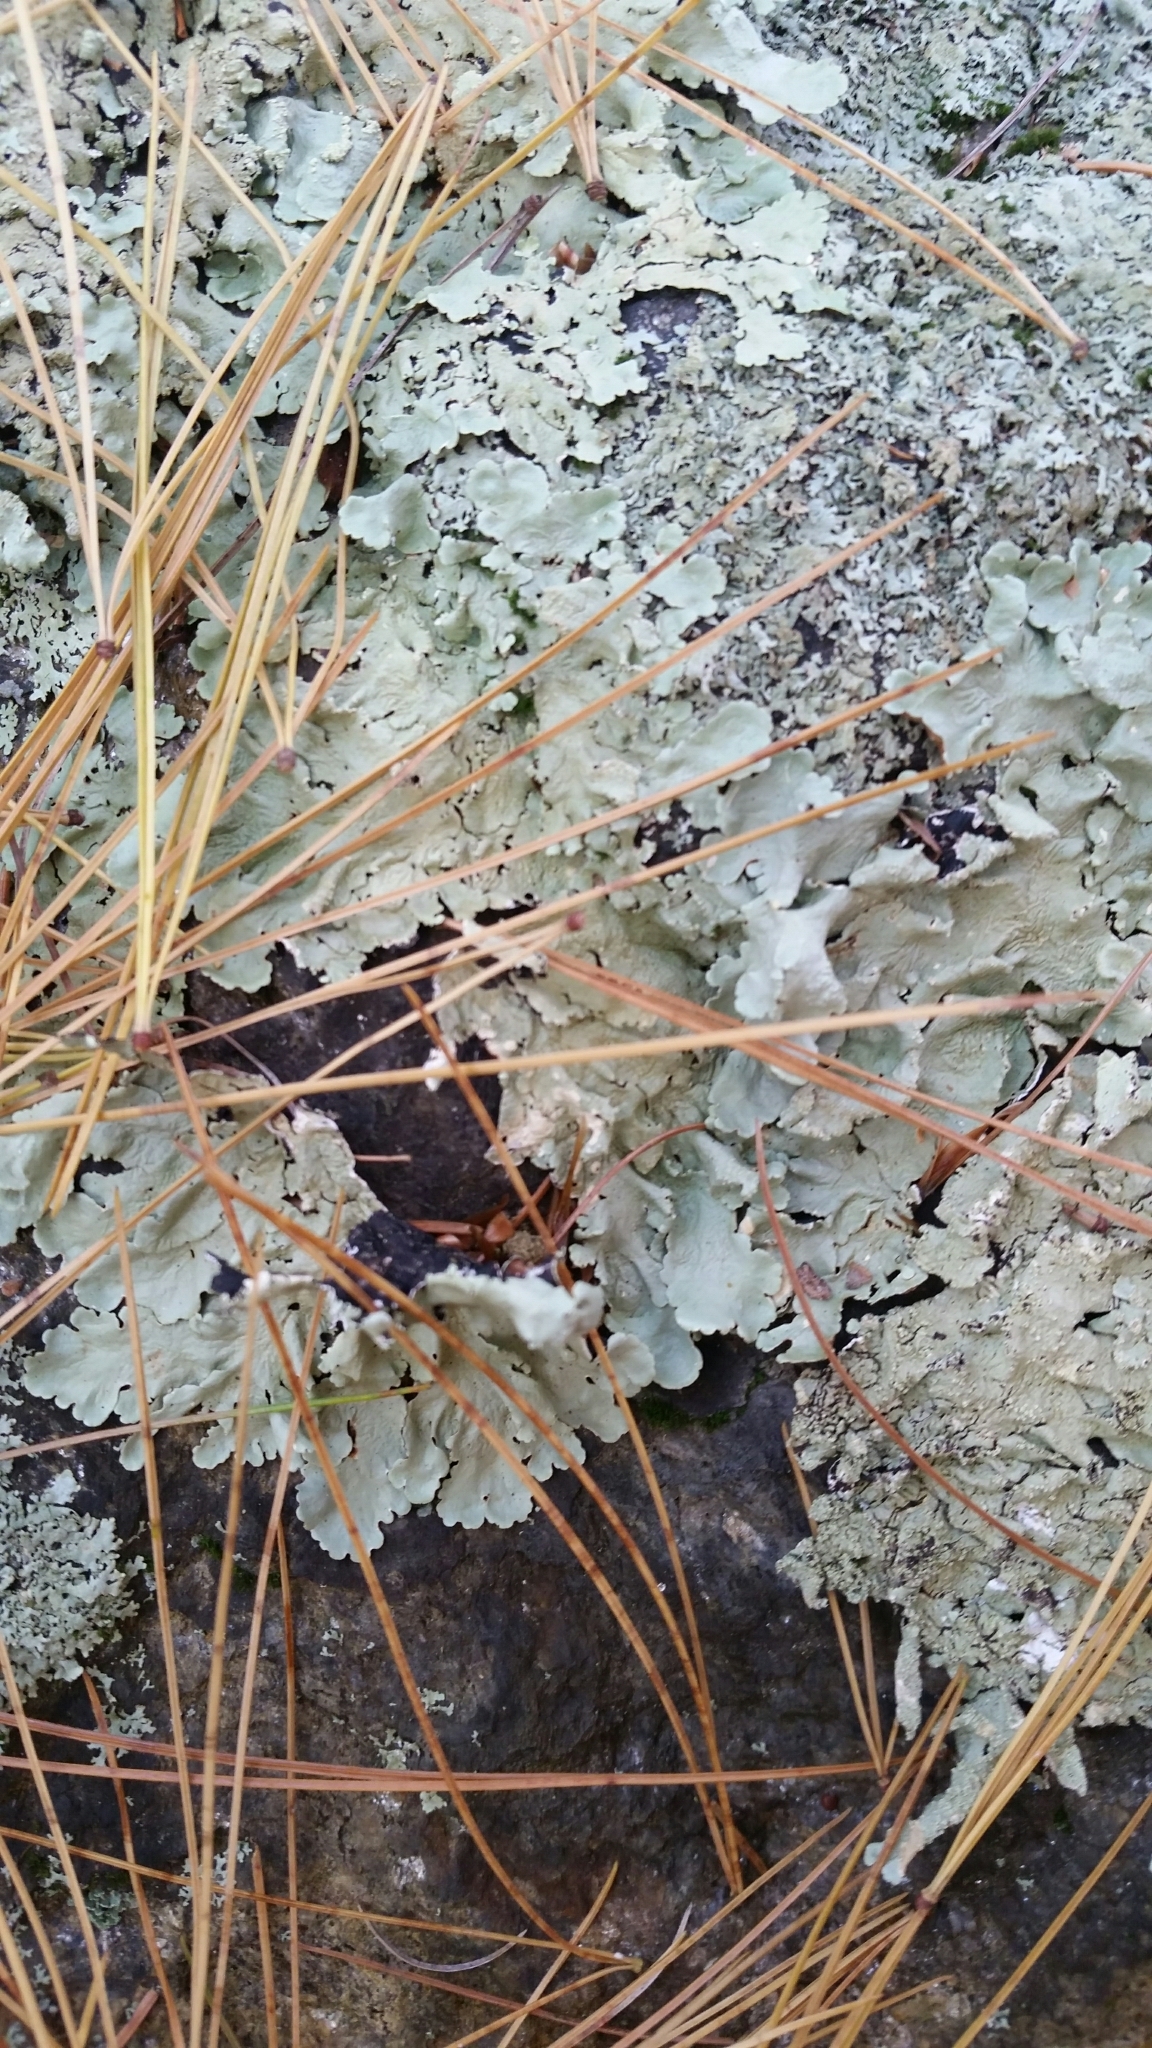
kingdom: Fungi
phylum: Ascomycota
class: Lecanoromycetes
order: Lecanorales
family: Parmeliaceae
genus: Flavoparmelia
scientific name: Flavoparmelia baltimorensis
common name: Rock greenshield
